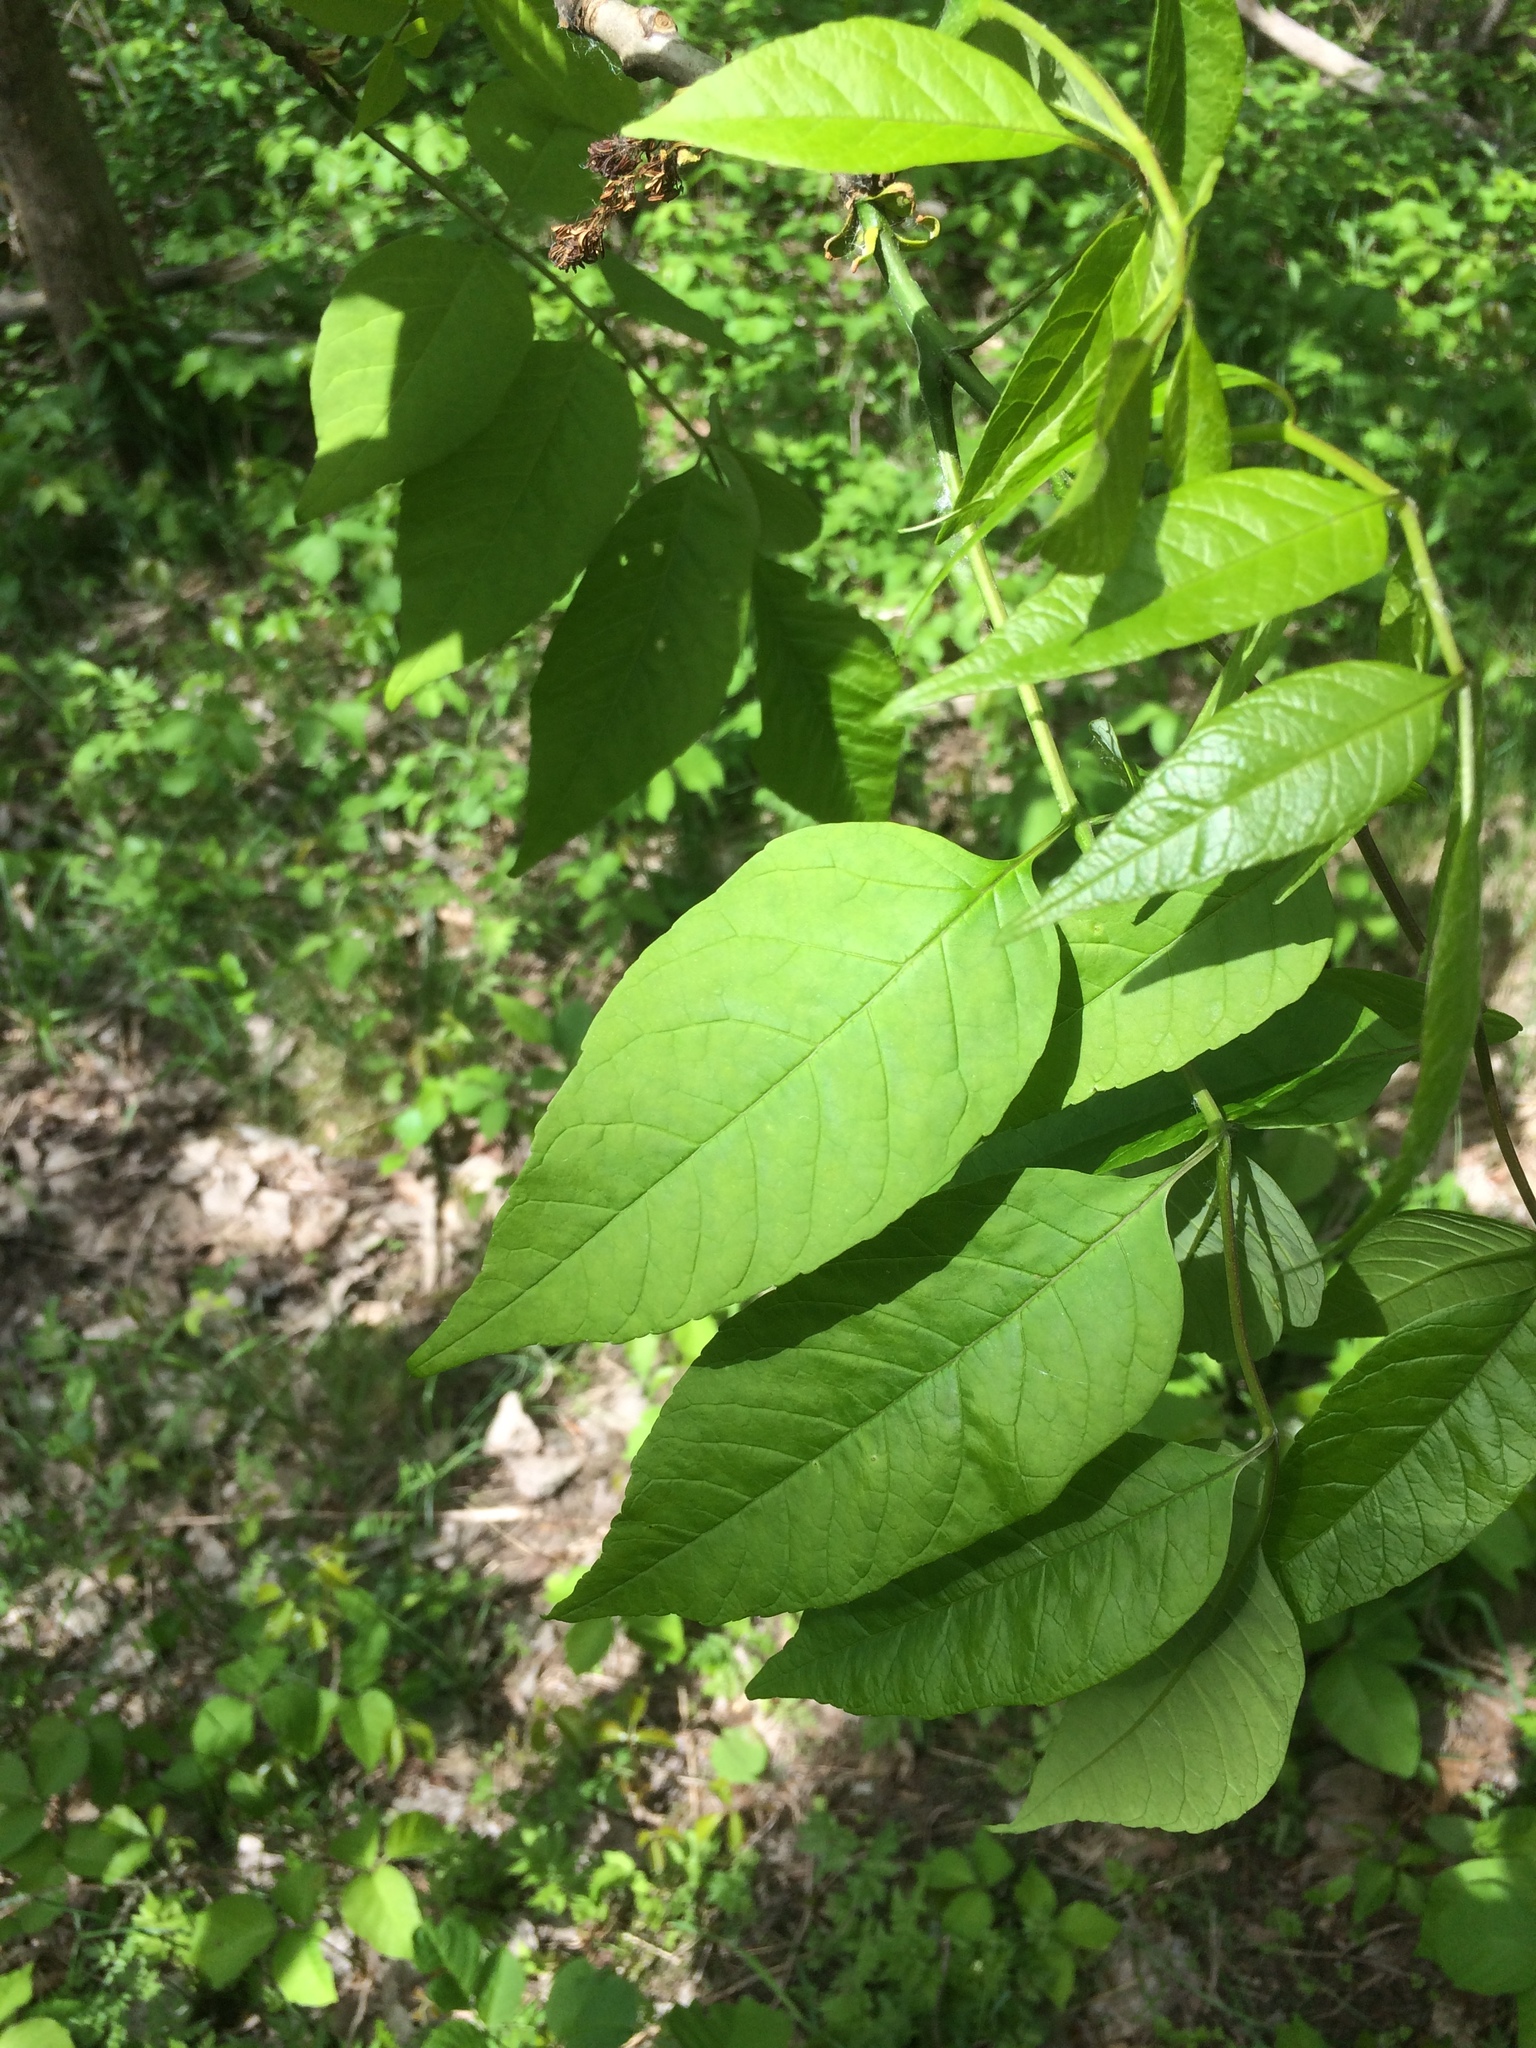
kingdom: Plantae
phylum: Tracheophyta
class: Magnoliopsida
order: Lamiales
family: Oleaceae
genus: Fraxinus
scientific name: Fraxinus americana
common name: White ash
